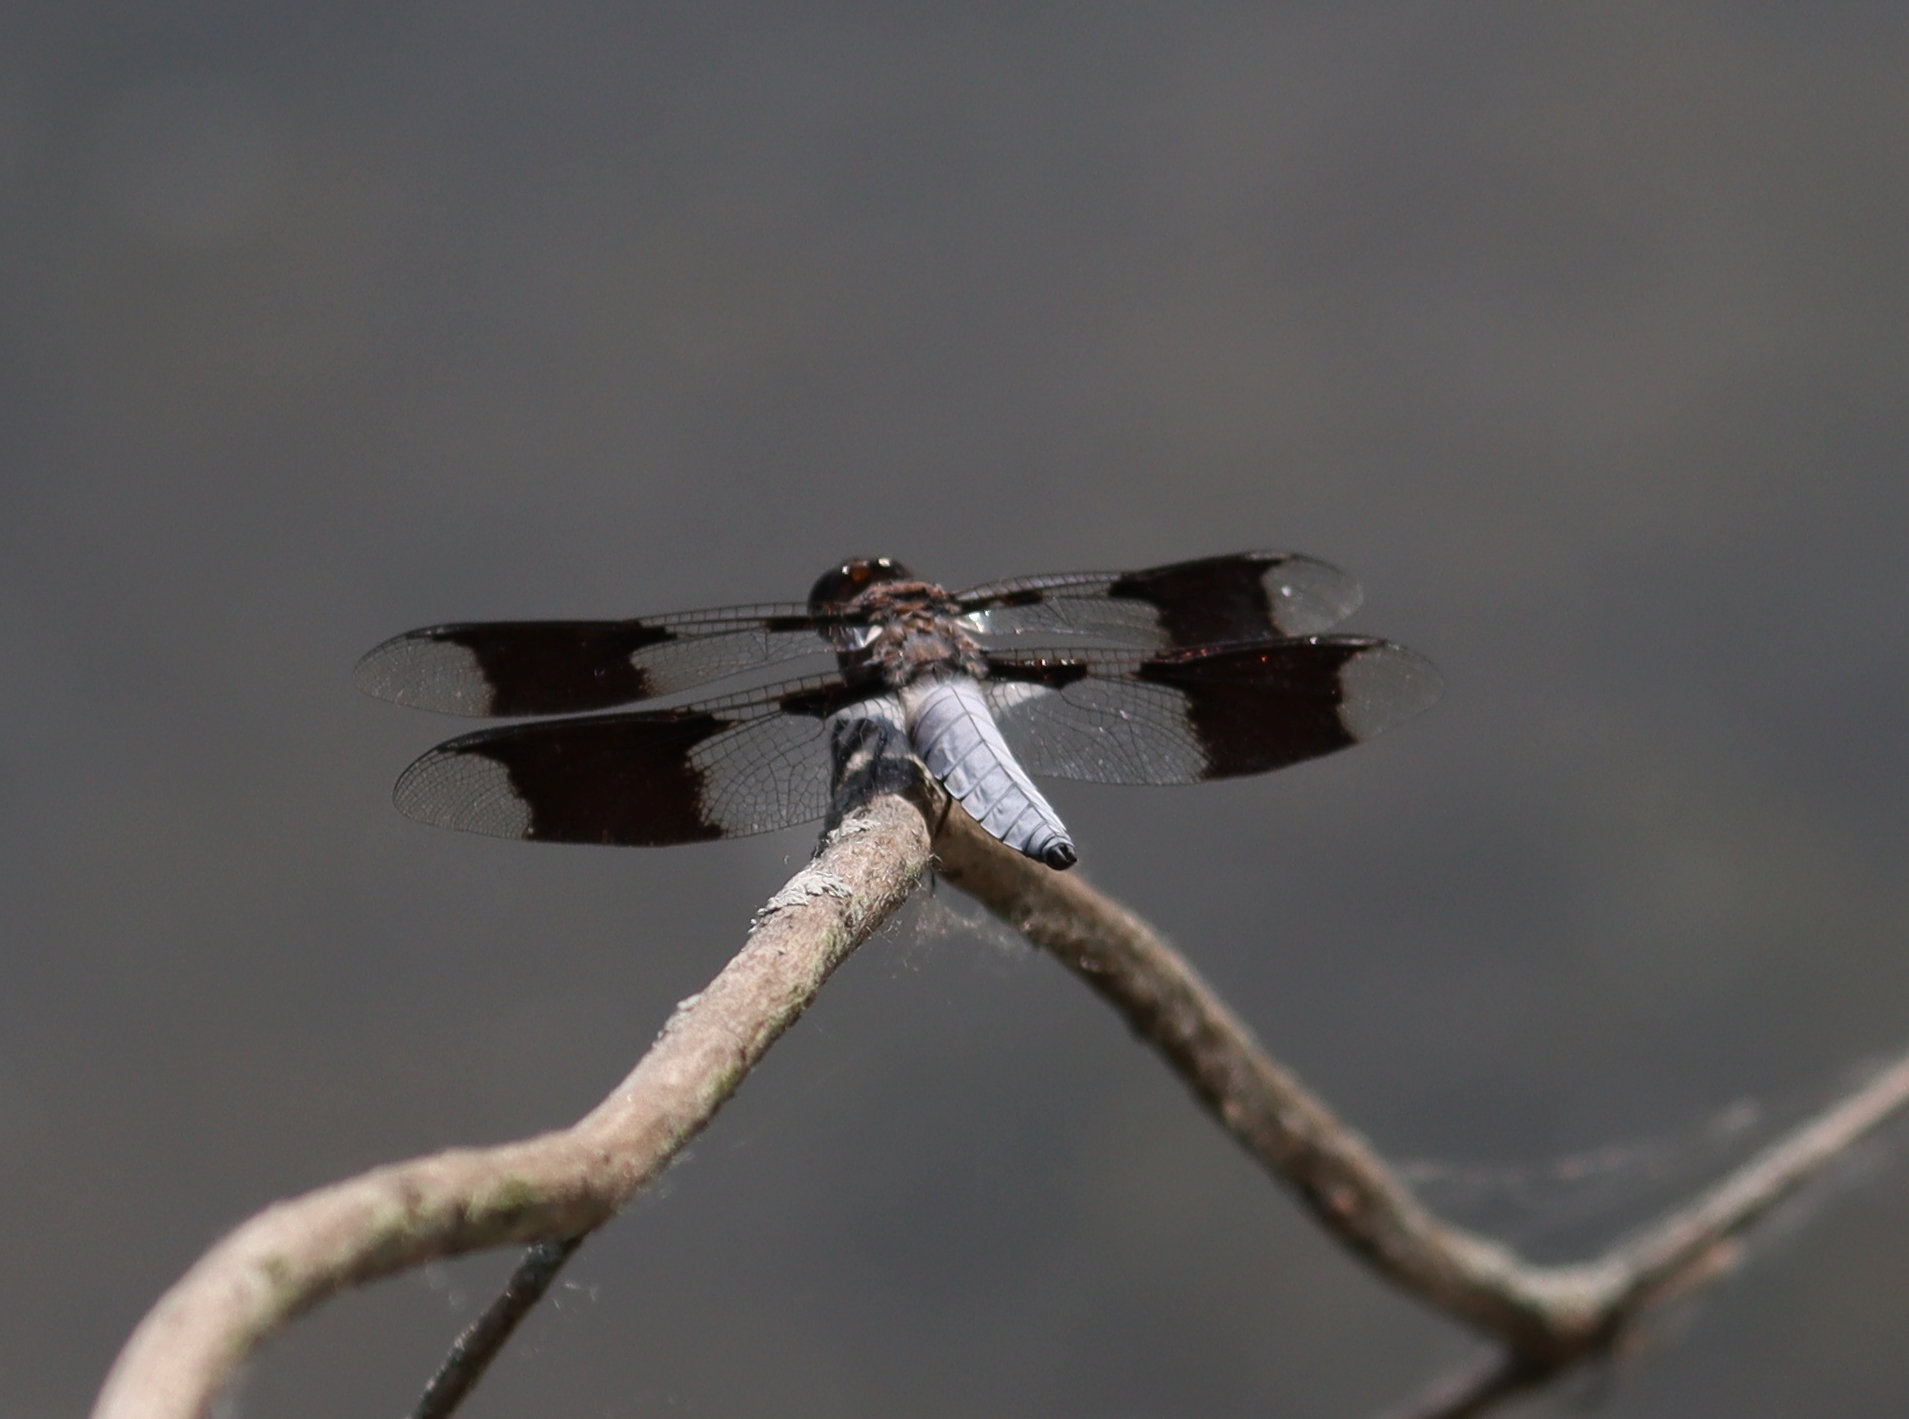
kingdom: Animalia
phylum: Arthropoda
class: Insecta
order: Odonata
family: Libellulidae
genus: Plathemis
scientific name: Plathemis lydia
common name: Common whitetail
